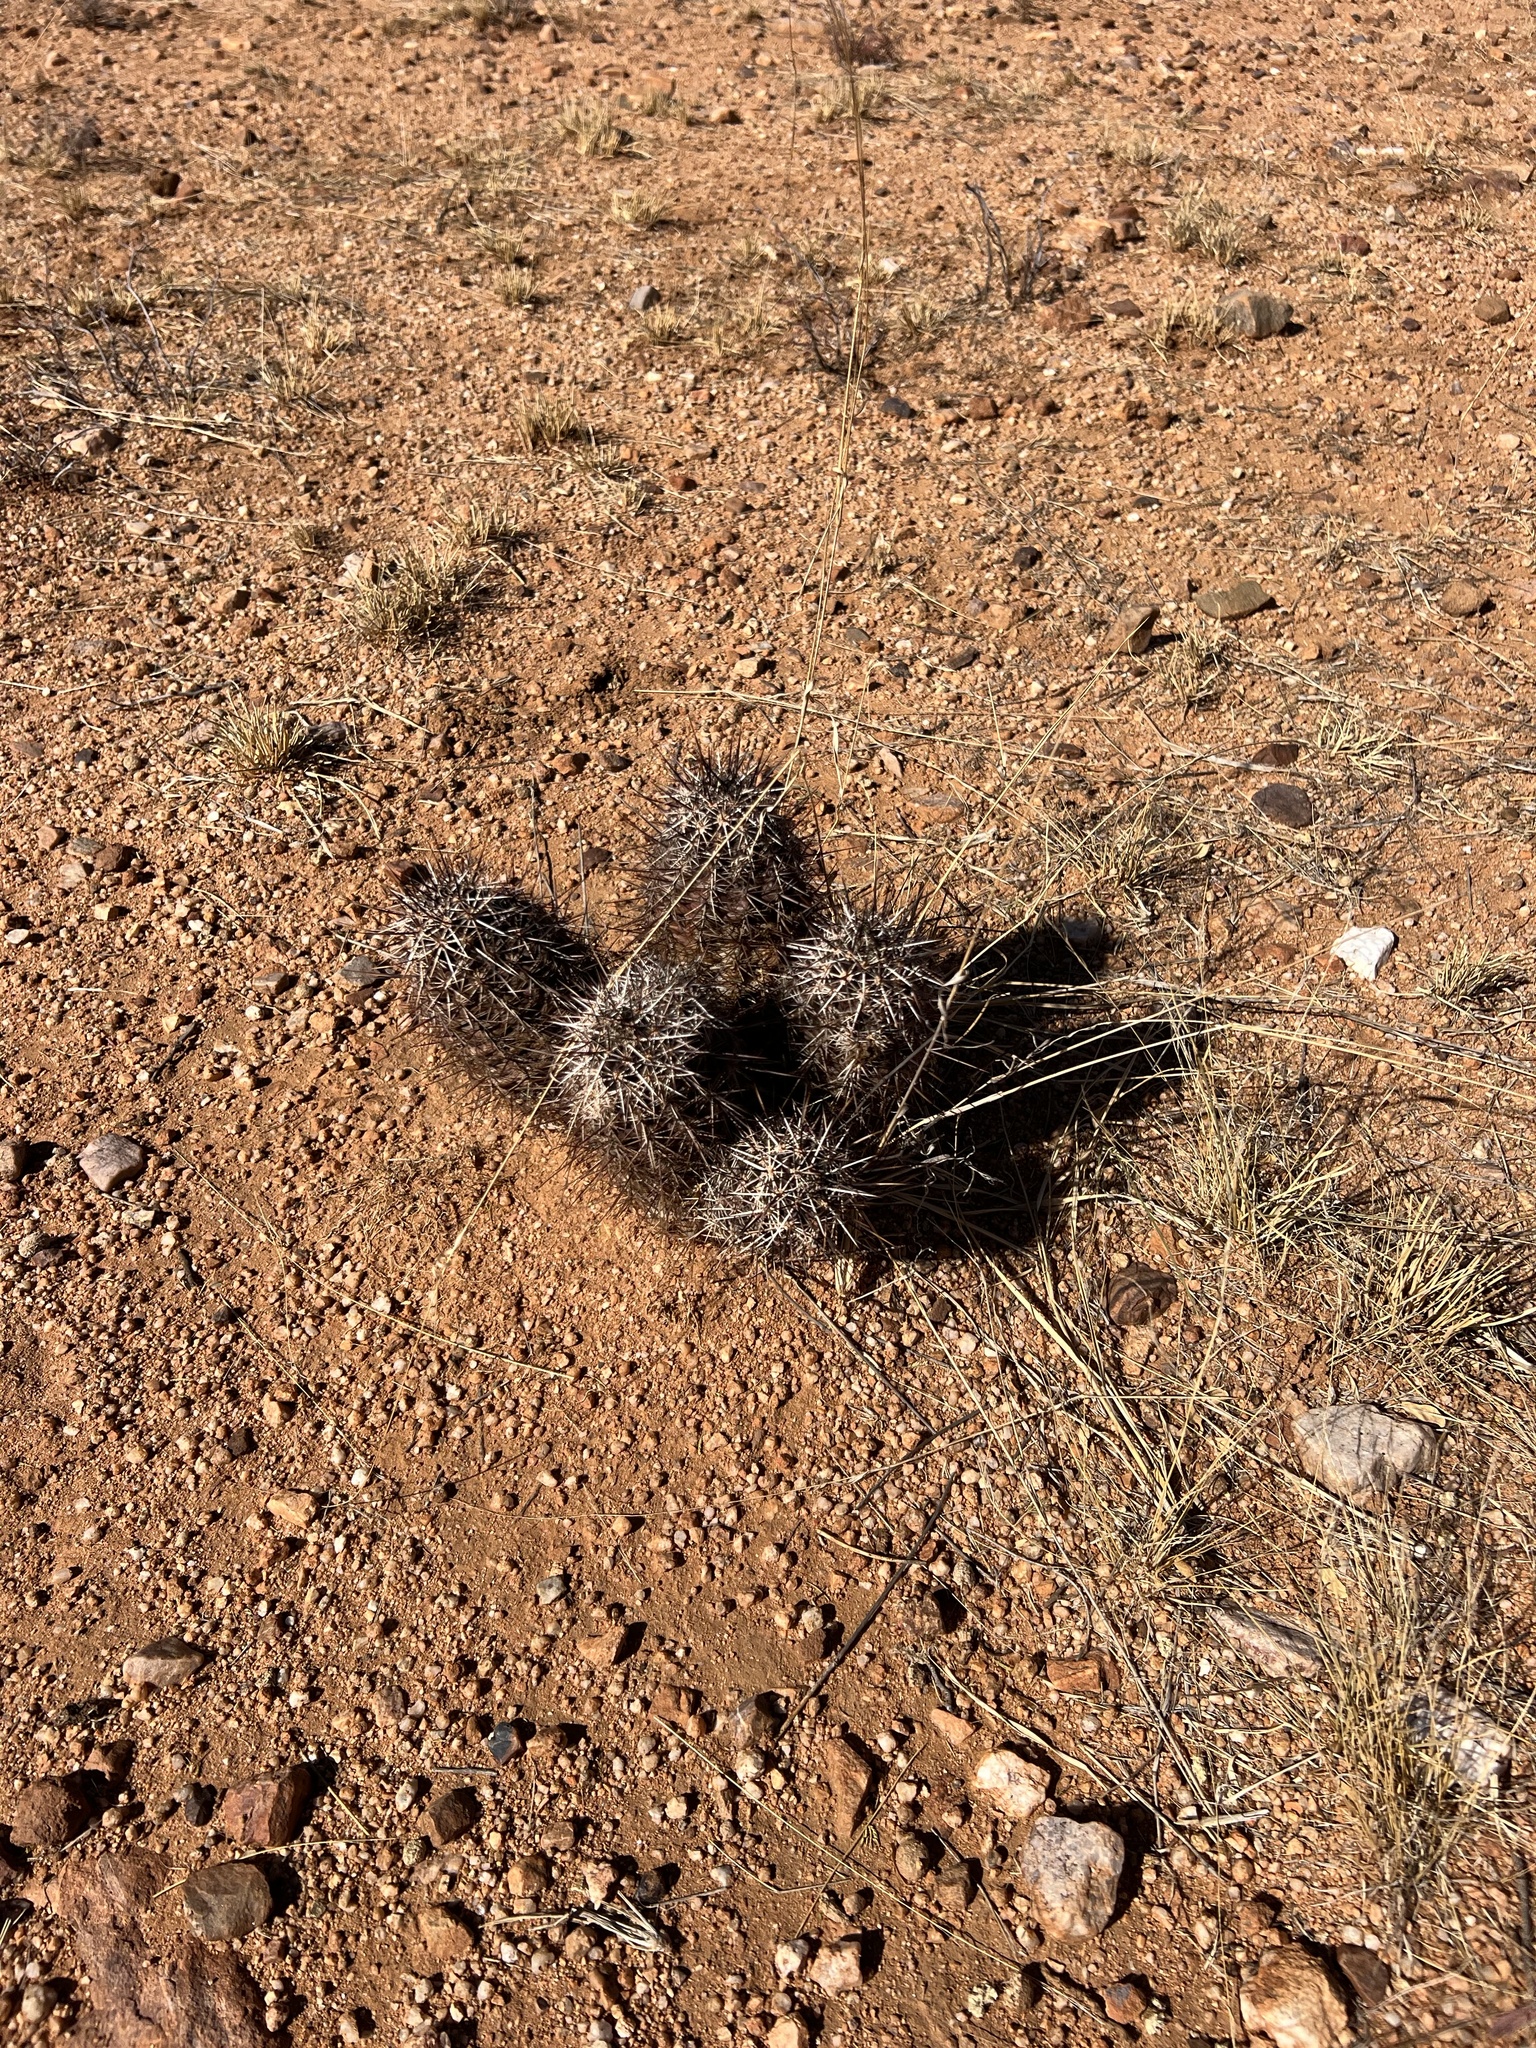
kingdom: Plantae
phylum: Tracheophyta
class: Magnoliopsida
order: Caryophyllales
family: Cactaceae
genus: Echinocereus
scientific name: Echinocereus fasciculatus
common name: Bundle hedgehog
